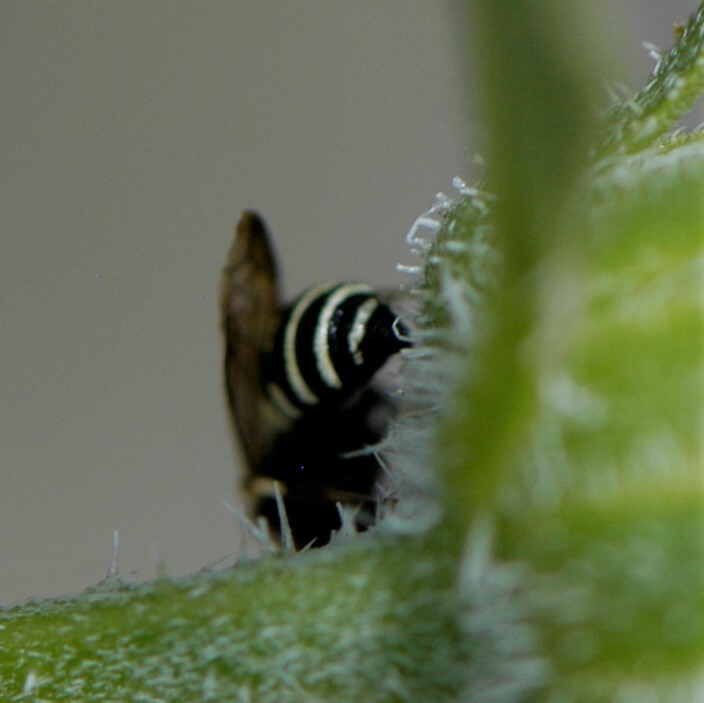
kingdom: Animalia
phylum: Arthropoda
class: Insecta
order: Hymenoptera
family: Crabronidae
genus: Cerceris
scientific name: Cerceris convergens
